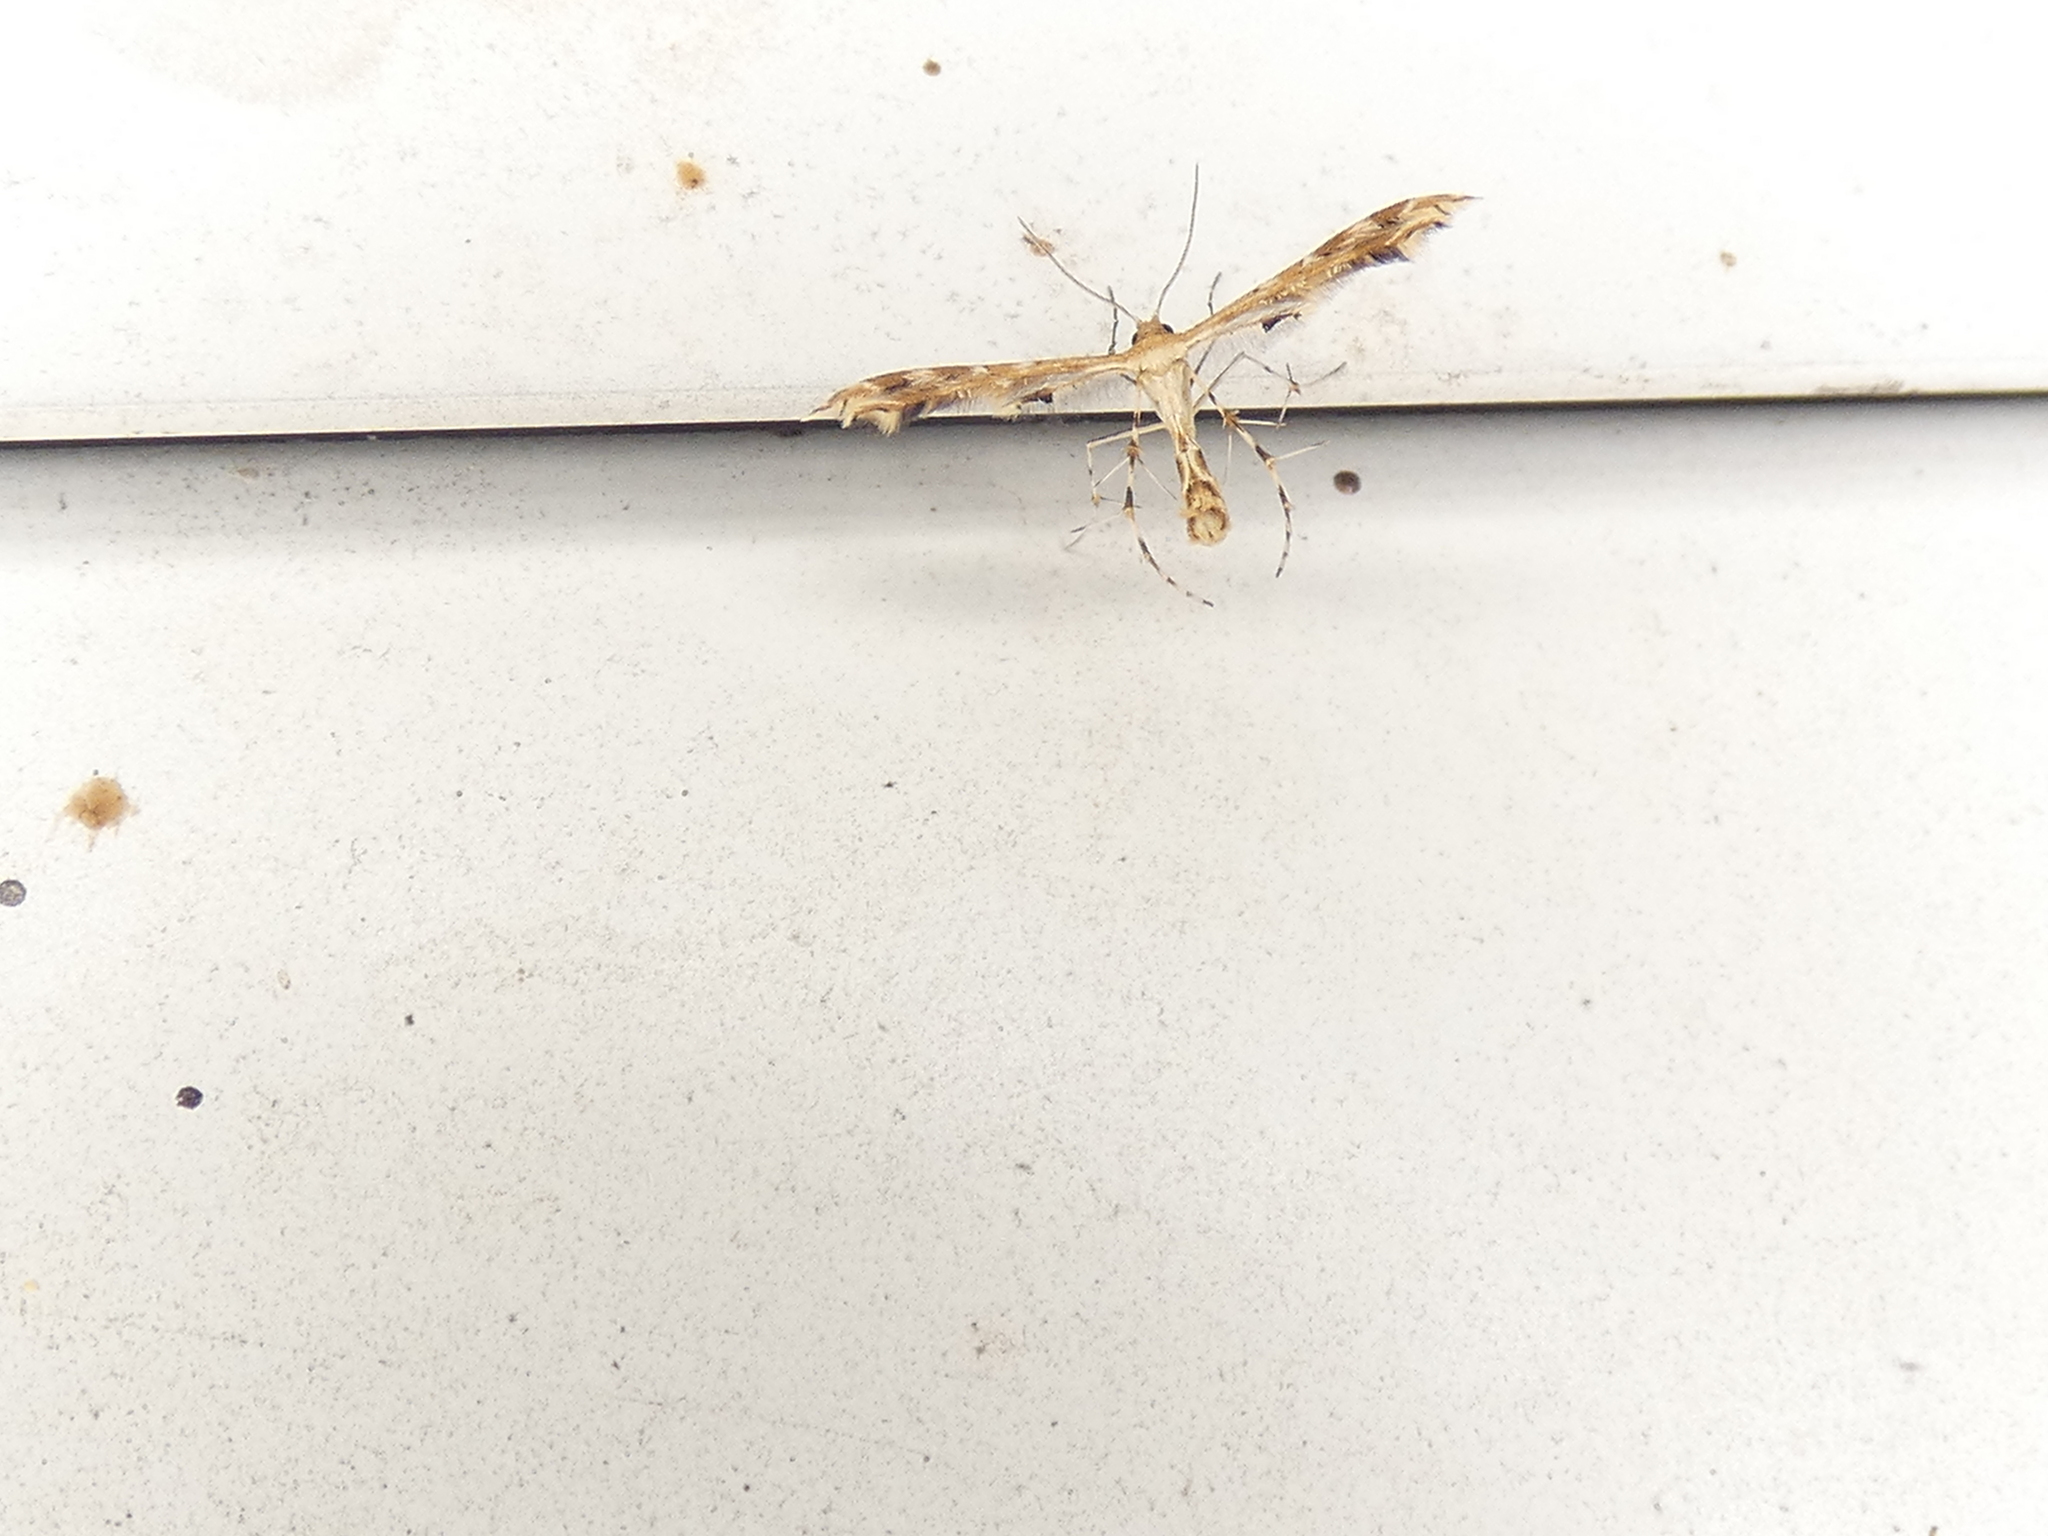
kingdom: Animalia
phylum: Arthropoda
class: Insecta
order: Lepidoptera
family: Pterophoridae
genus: Sphenarches
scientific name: Sphenarches anisodactylus
